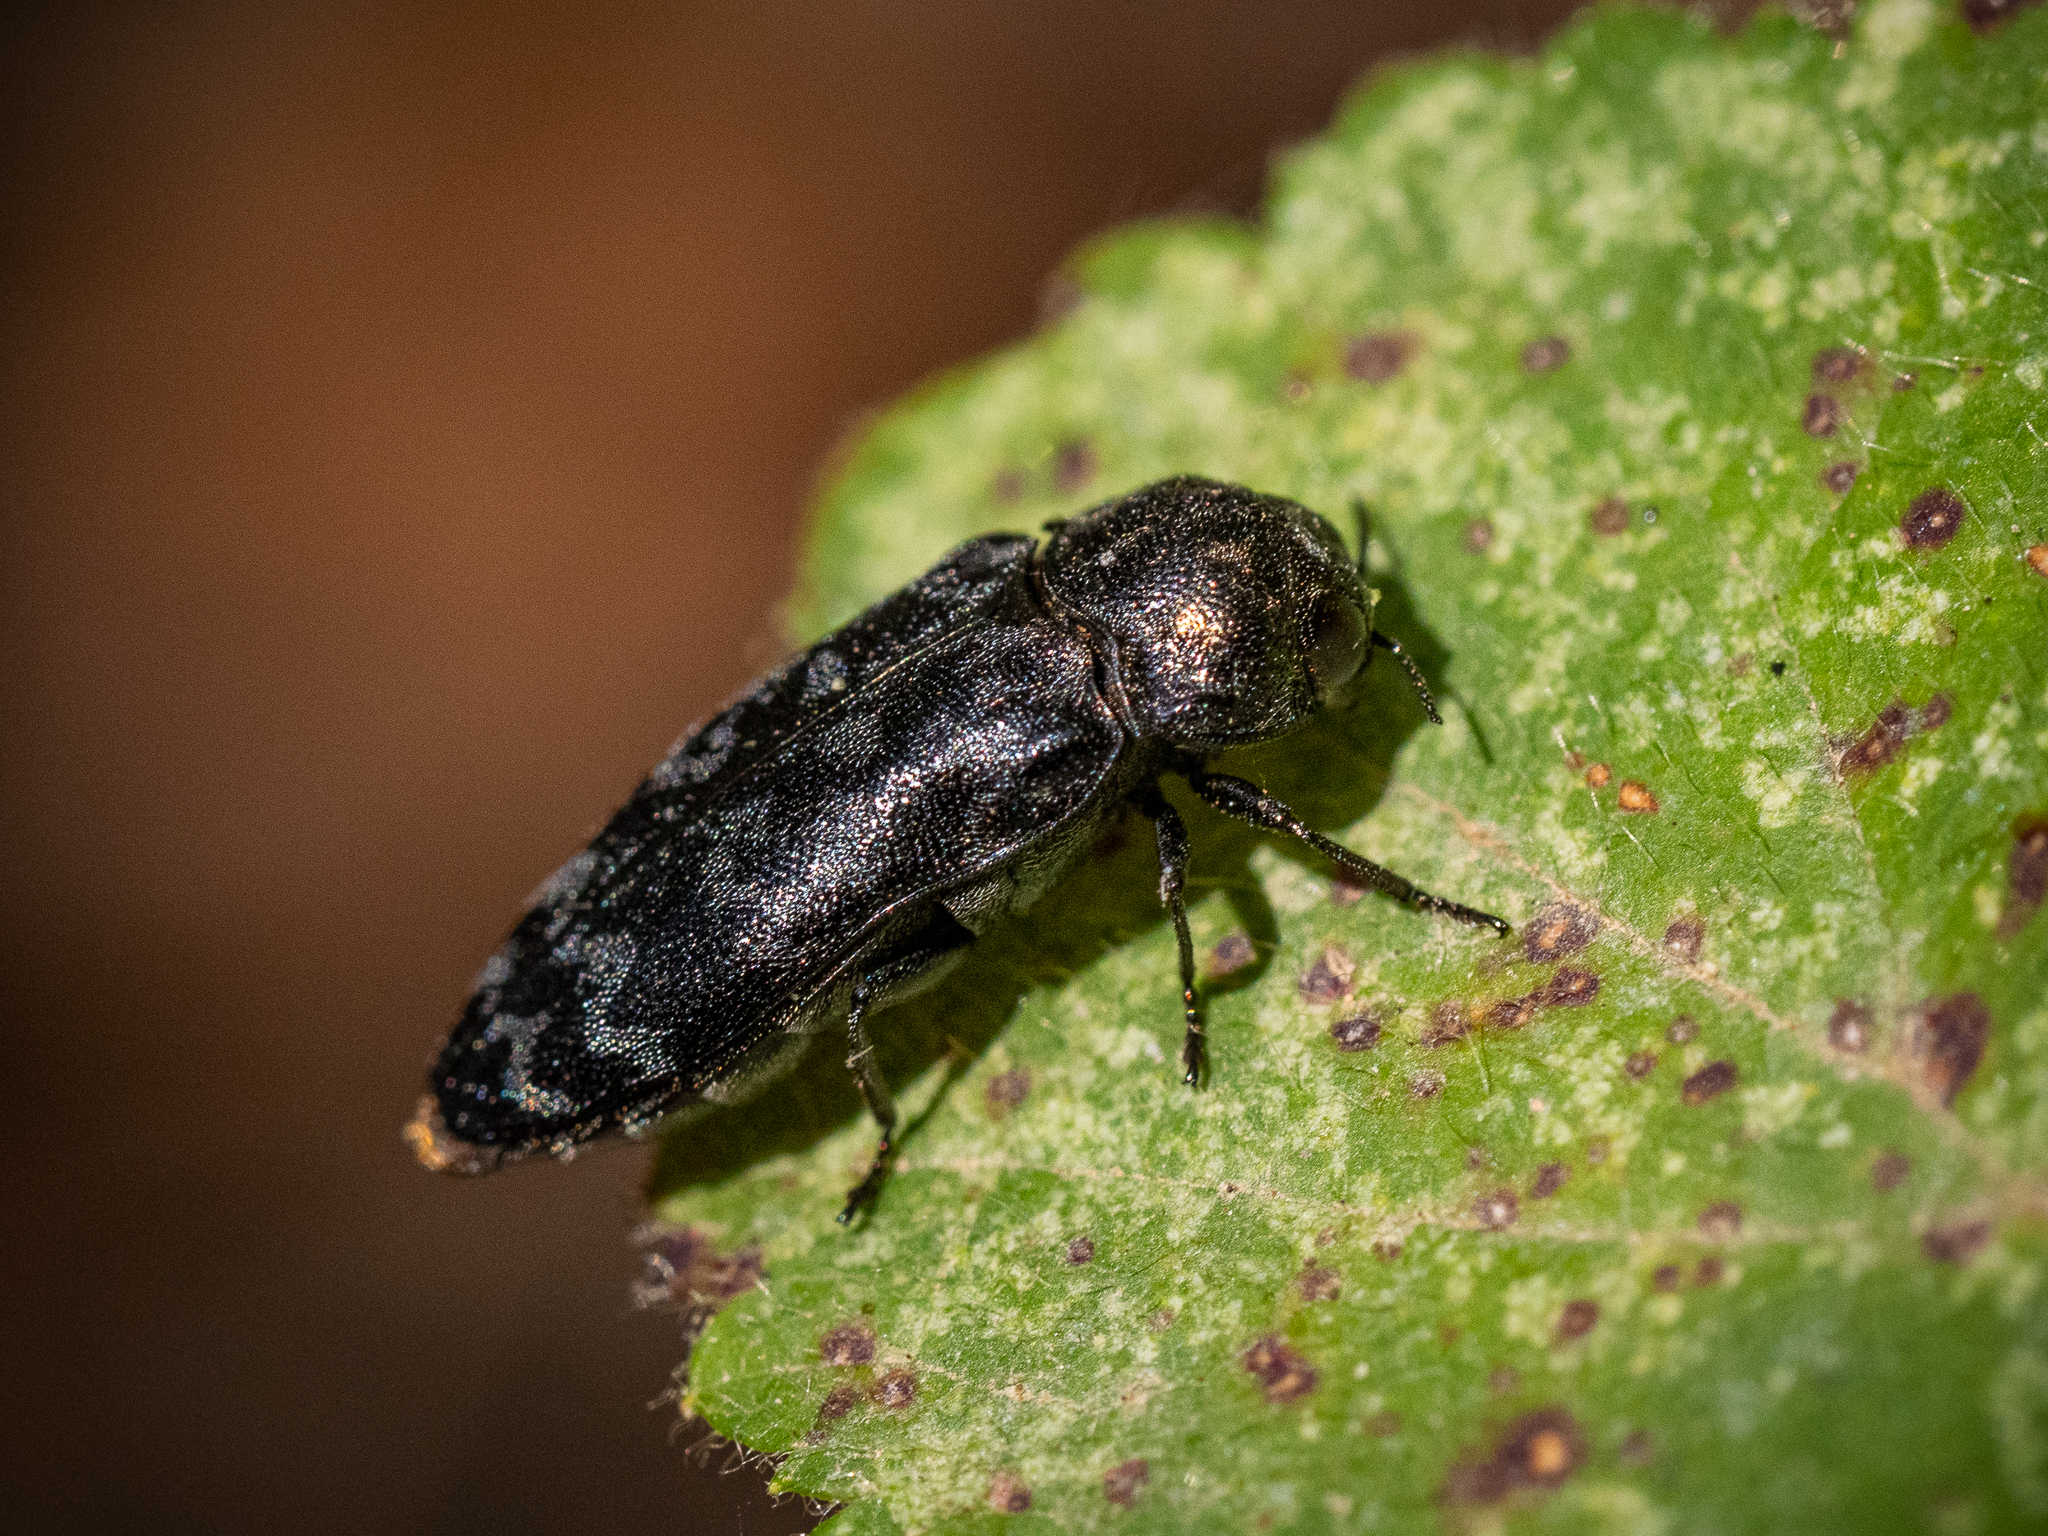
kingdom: Animalia
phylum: Arthropoda
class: Insecta
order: Coleoptera
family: Buprestidae
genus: Coraebus
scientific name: Coraebus rubi
